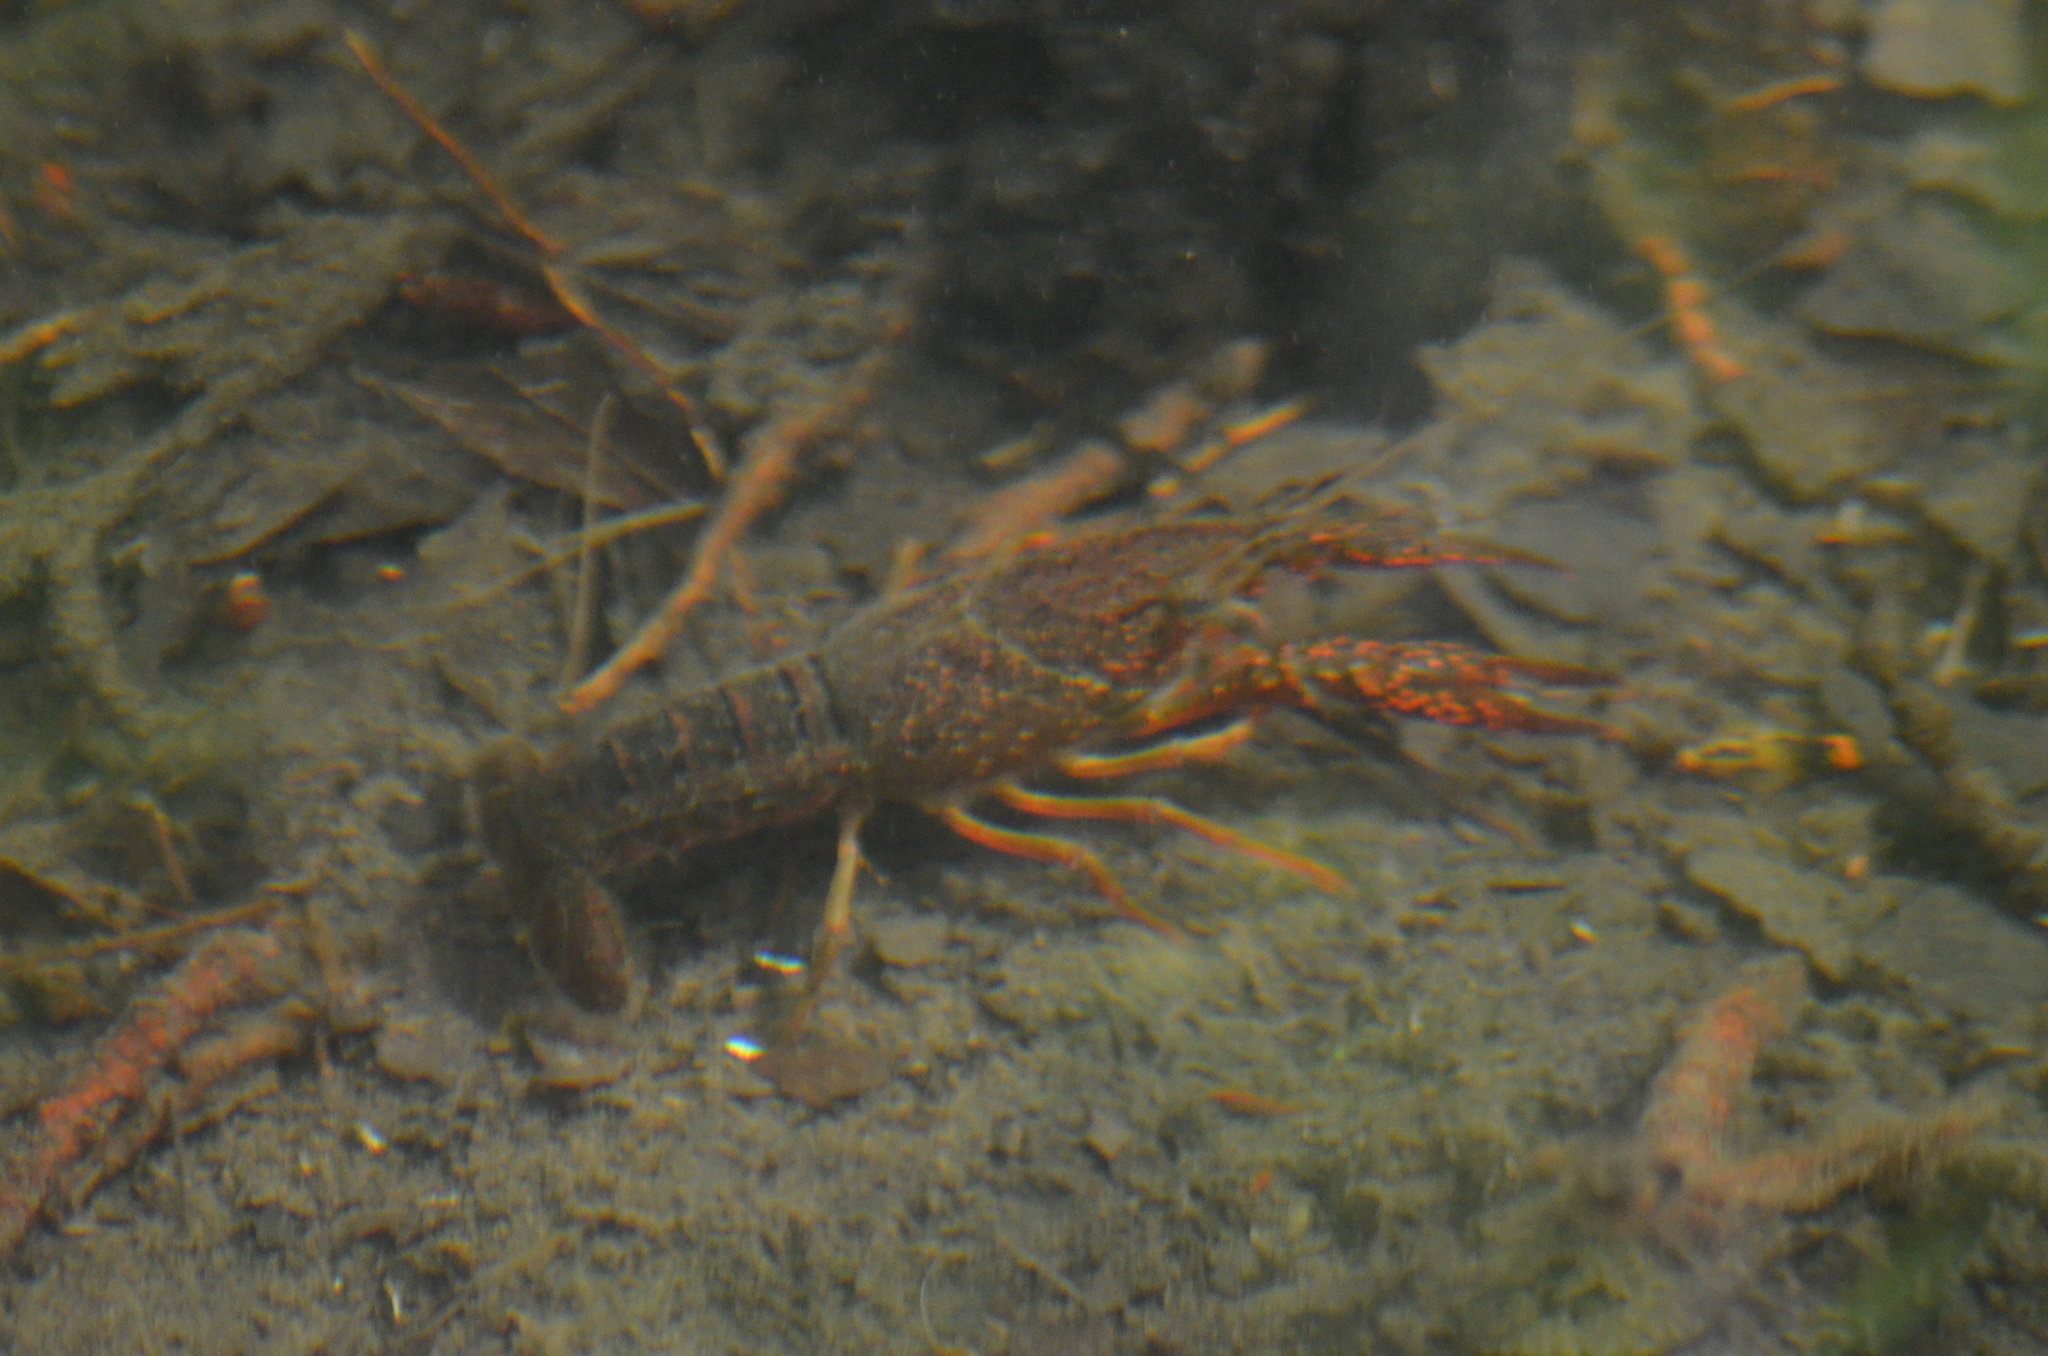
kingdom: Animalia
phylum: Arthropoda
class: Malacostraca
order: Decapoda
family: Cambaridae
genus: Procambarus
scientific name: Procambarus clarkii
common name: Red swamp crayfish
